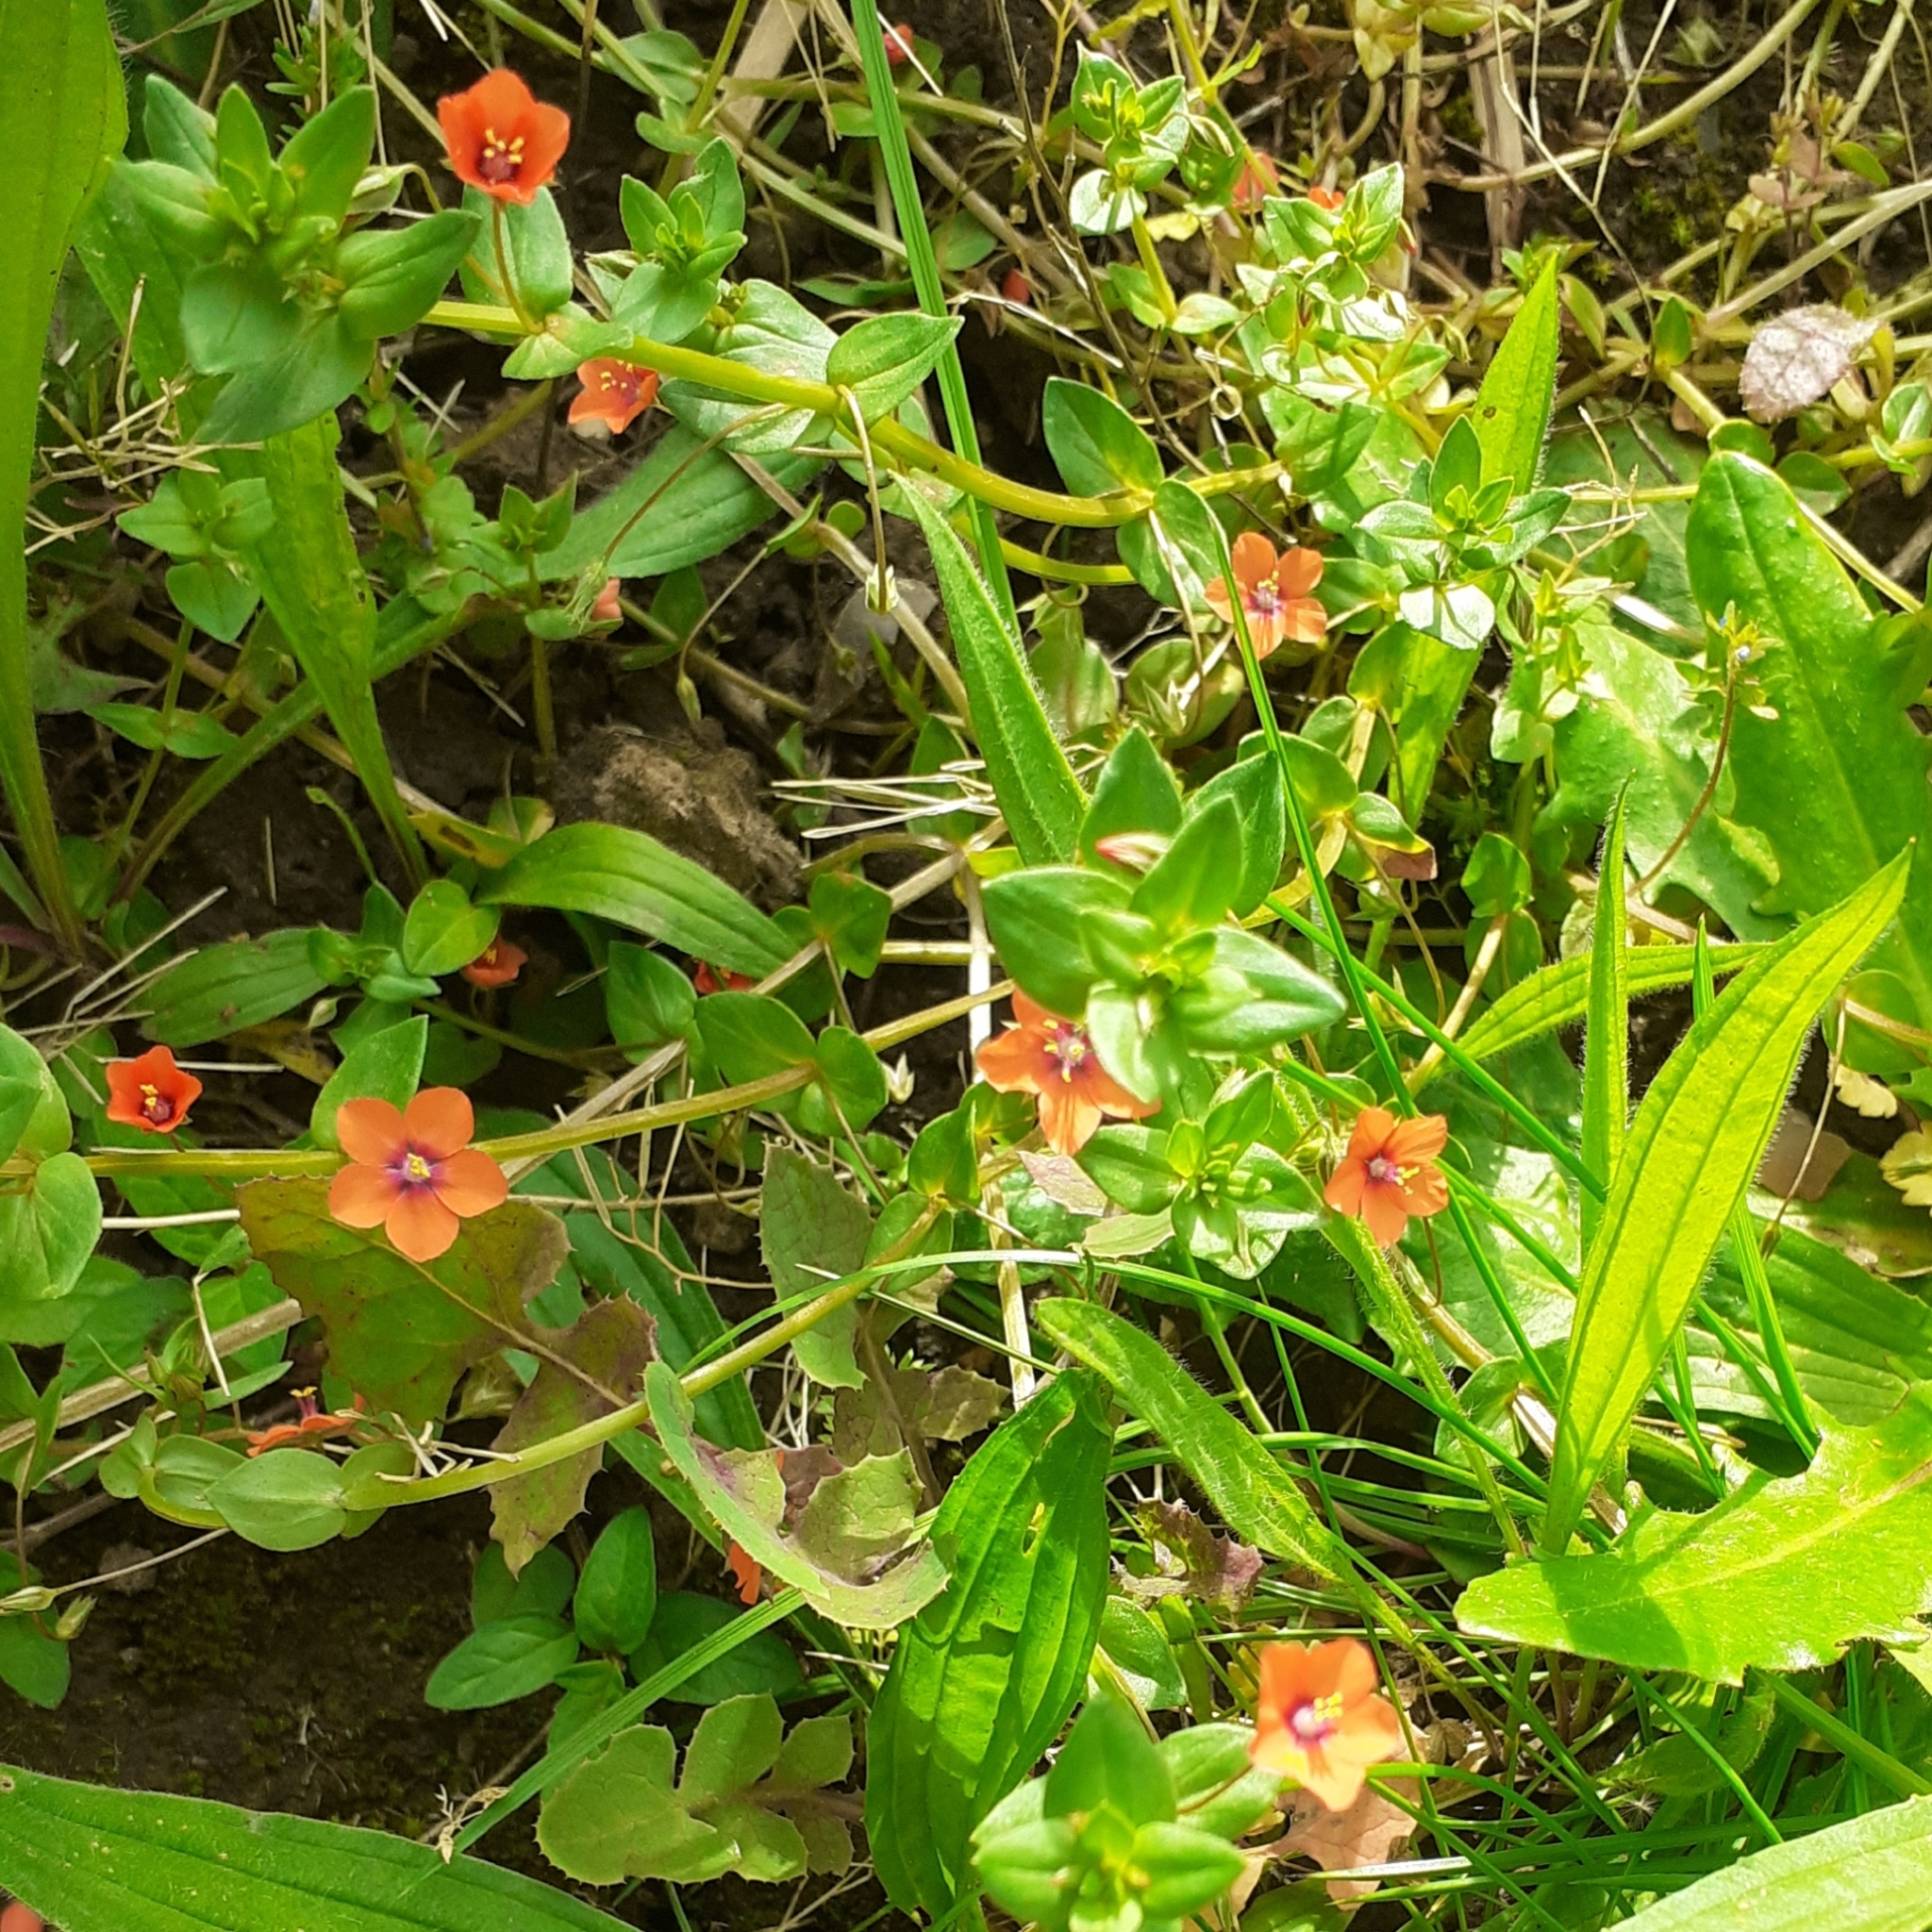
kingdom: Plantae
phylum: Tracheophyta
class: Magnoliopsida
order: Ericales
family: Primulaceae
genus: Lysimachia
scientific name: Lysimachia arvensis
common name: Scarlet pimpernel
